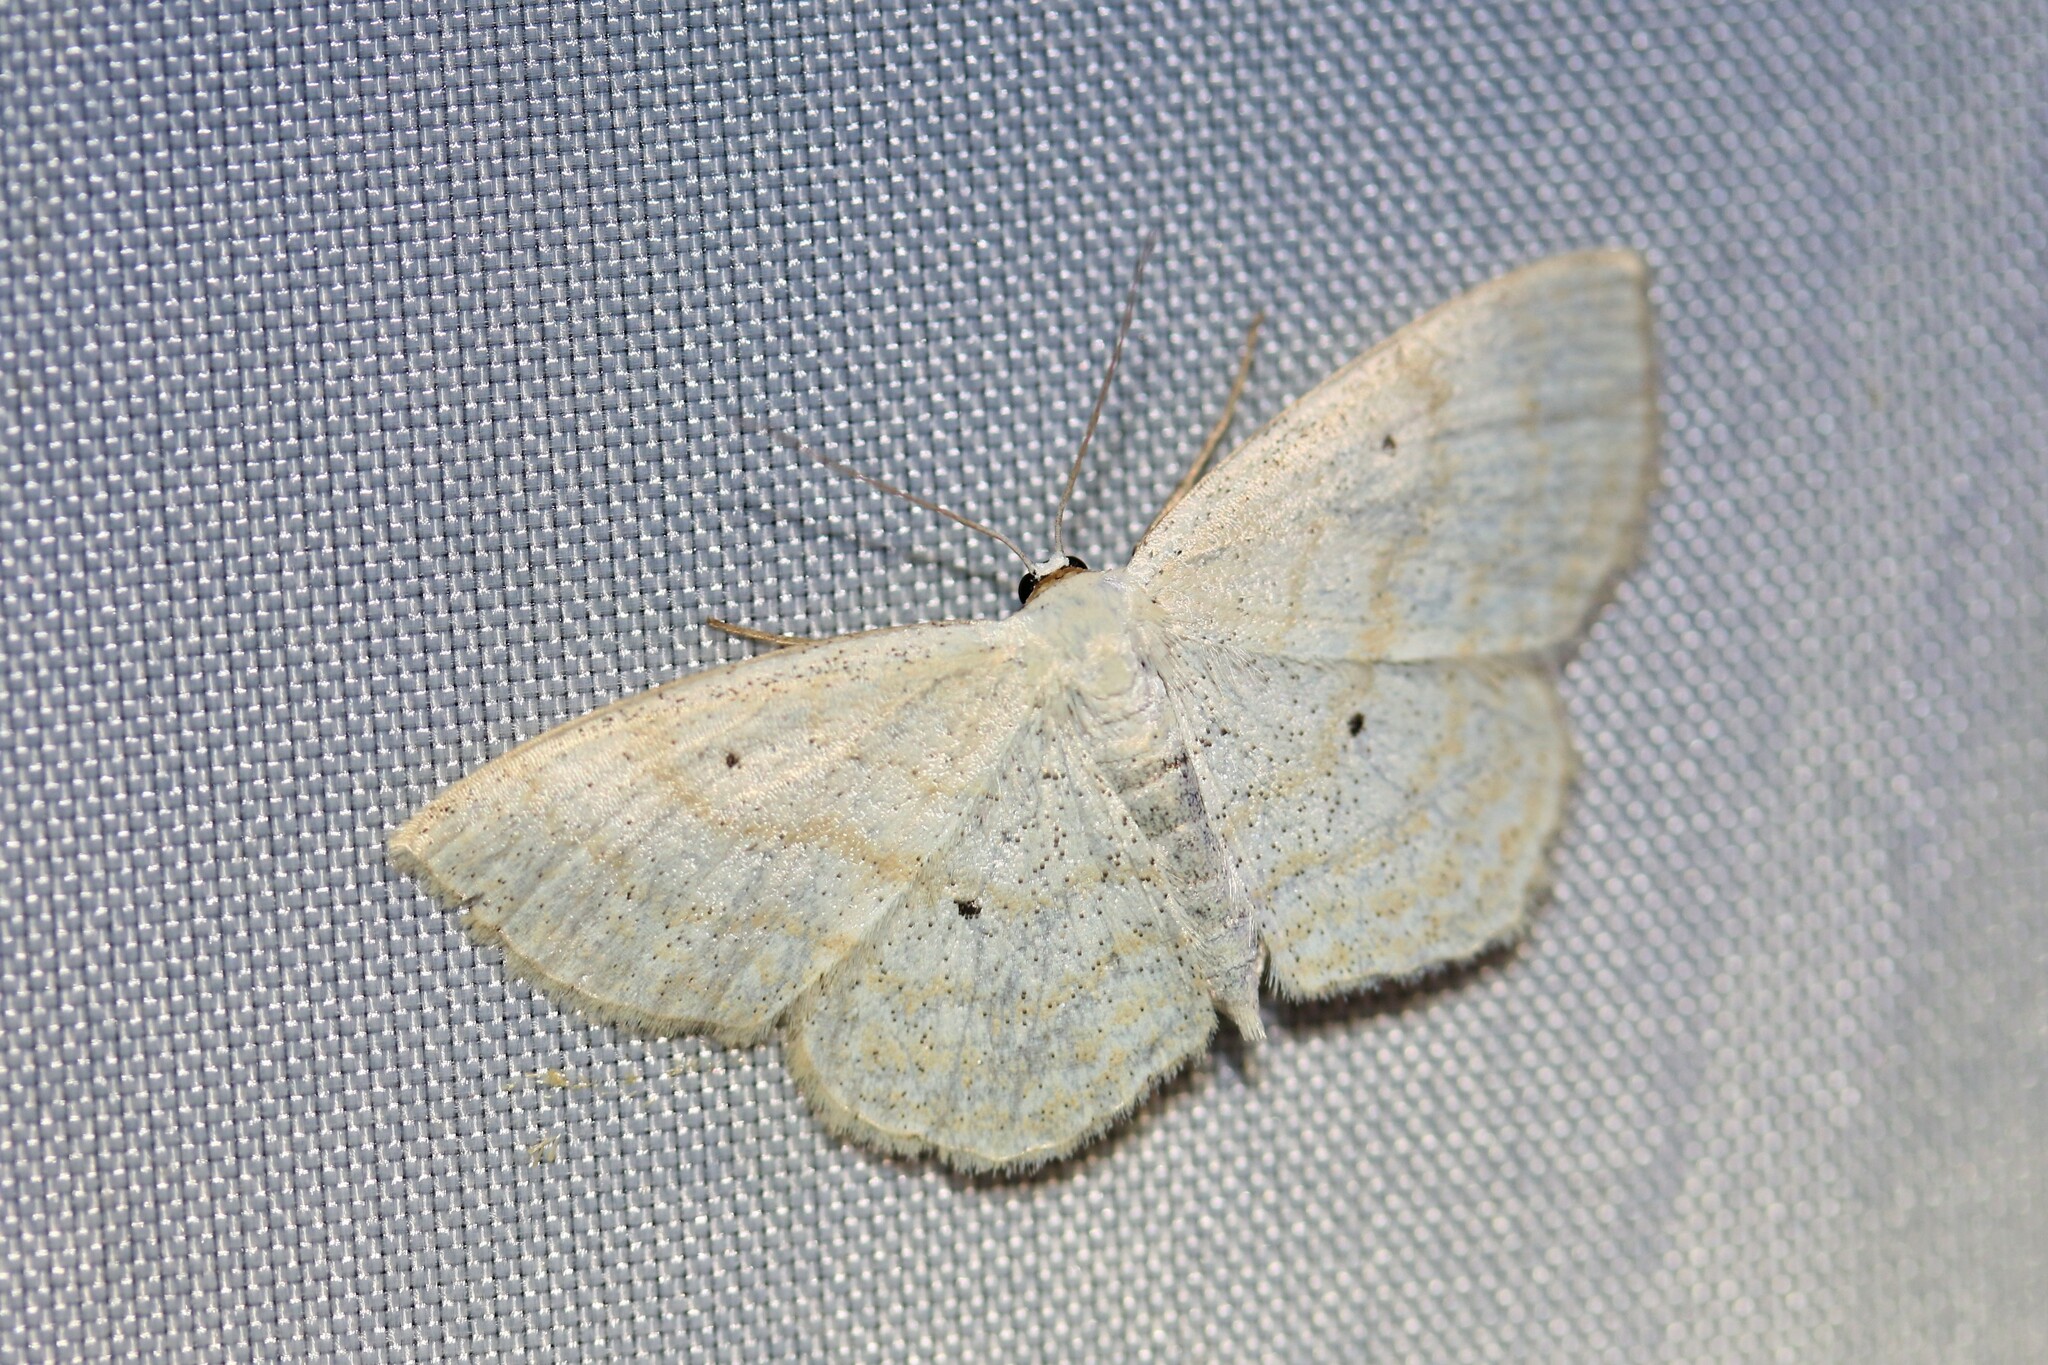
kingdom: Animalia
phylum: Arthropoda
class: Insecta
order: Lepidoptera
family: Geometridae
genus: Scopula
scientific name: Scopula immutata
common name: Lesser cream wave
